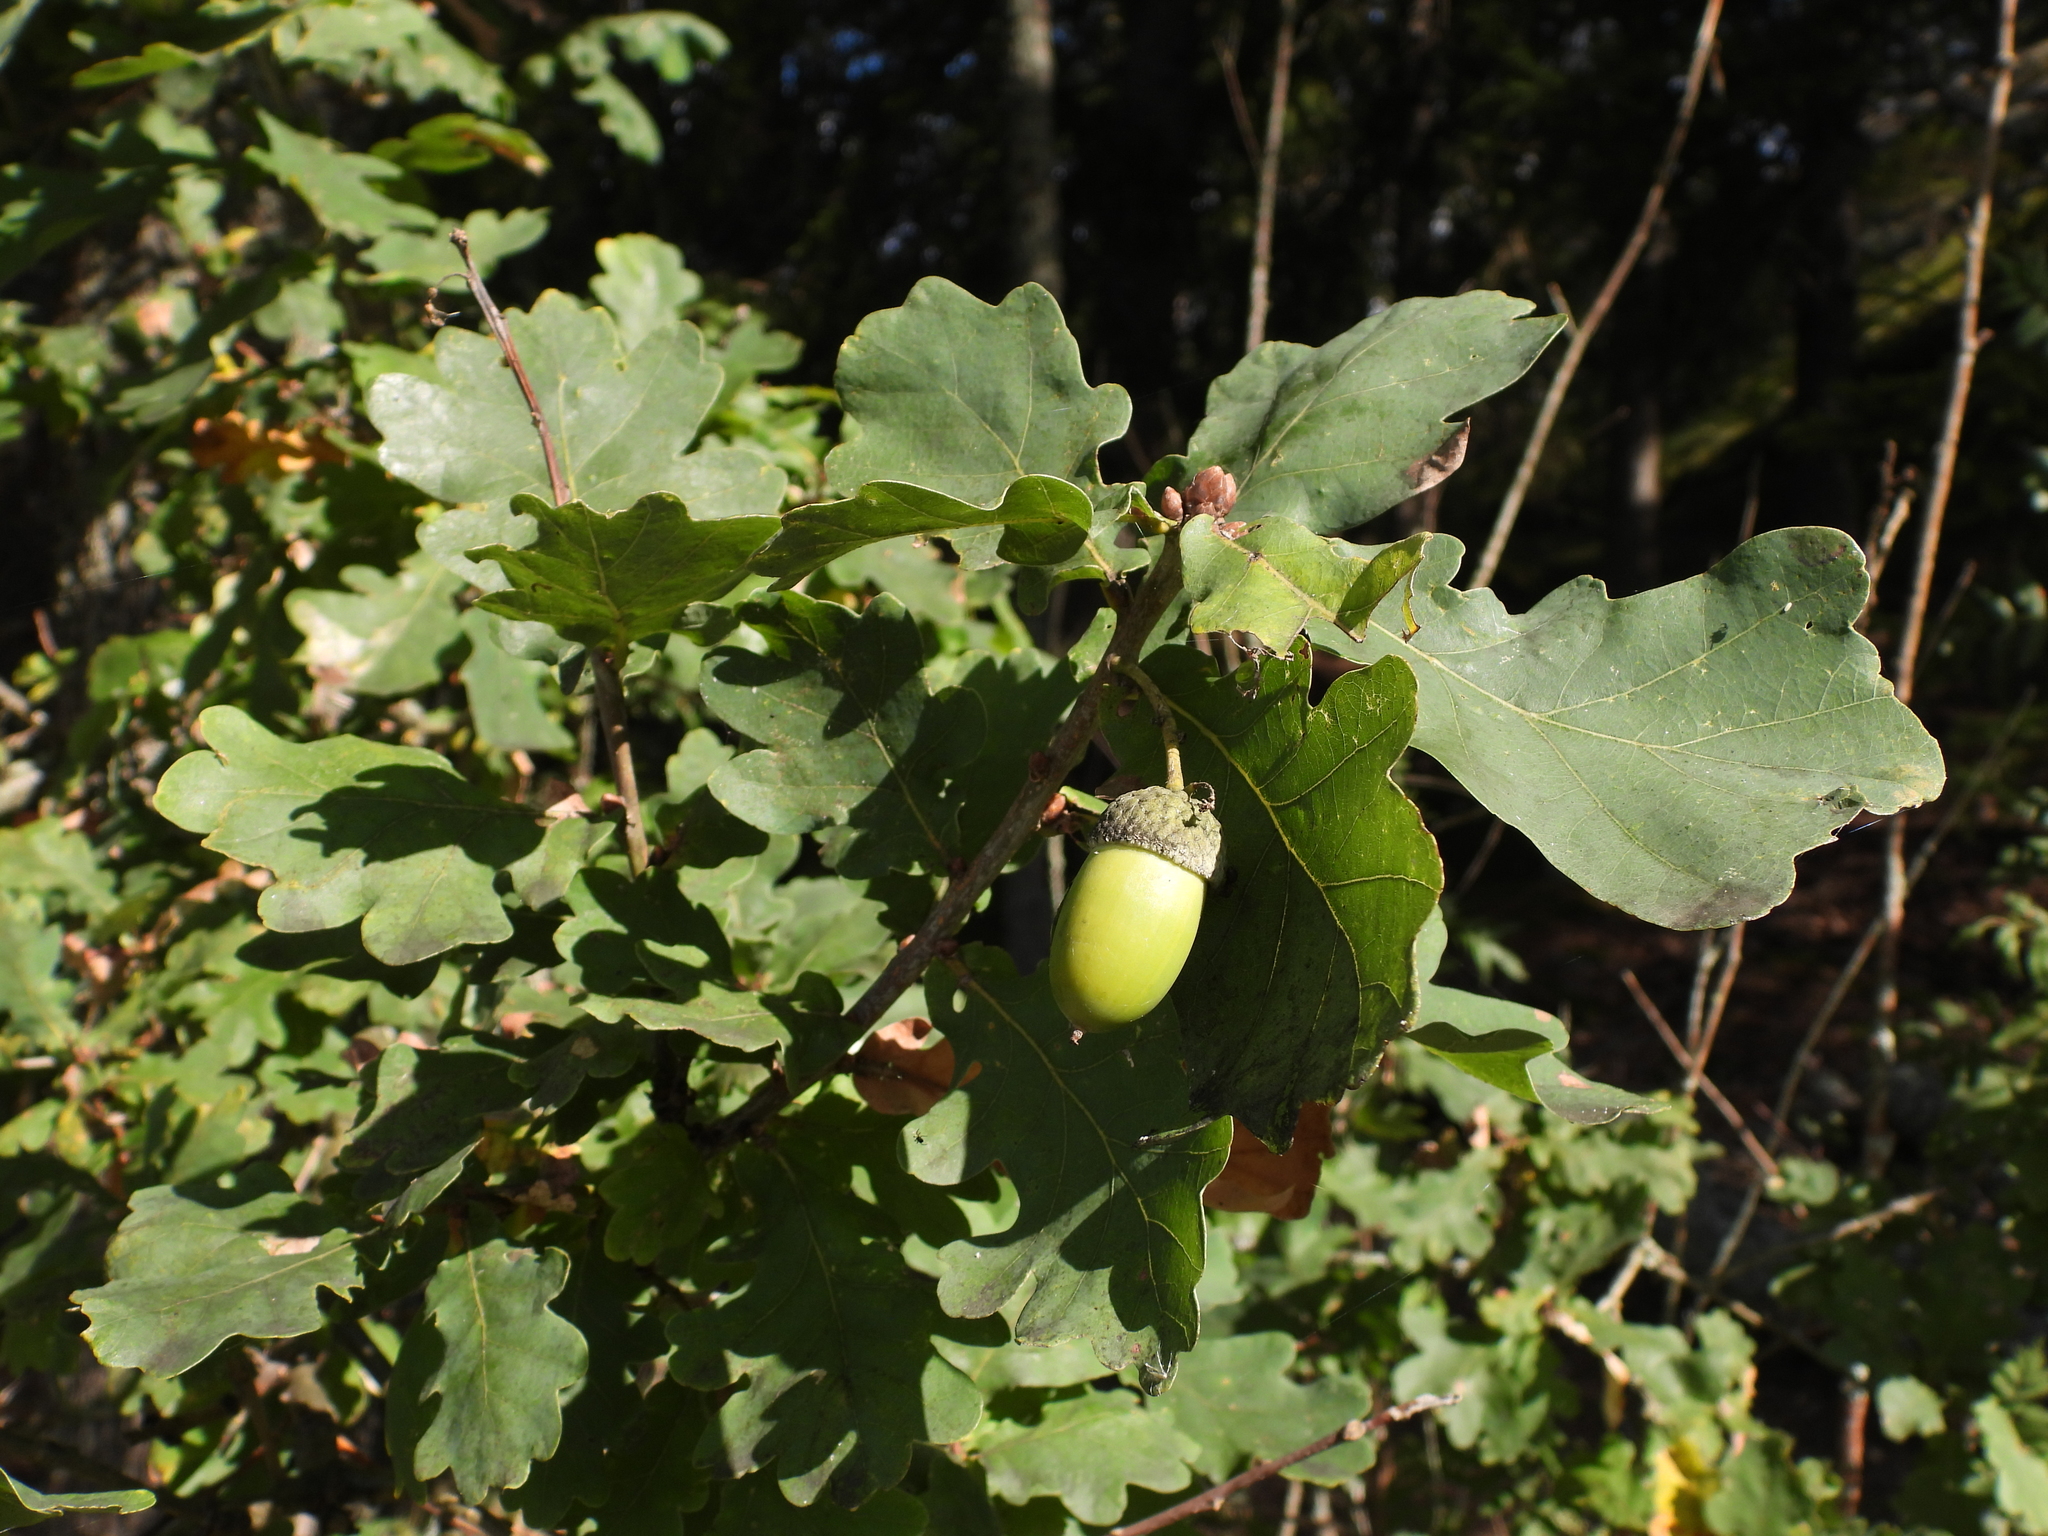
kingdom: Plantae
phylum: Tracheophyta
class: Magnoliopsida
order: Fagales
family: Fagaceae
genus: Quercus
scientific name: Quercus robur
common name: Pedunculate oak
